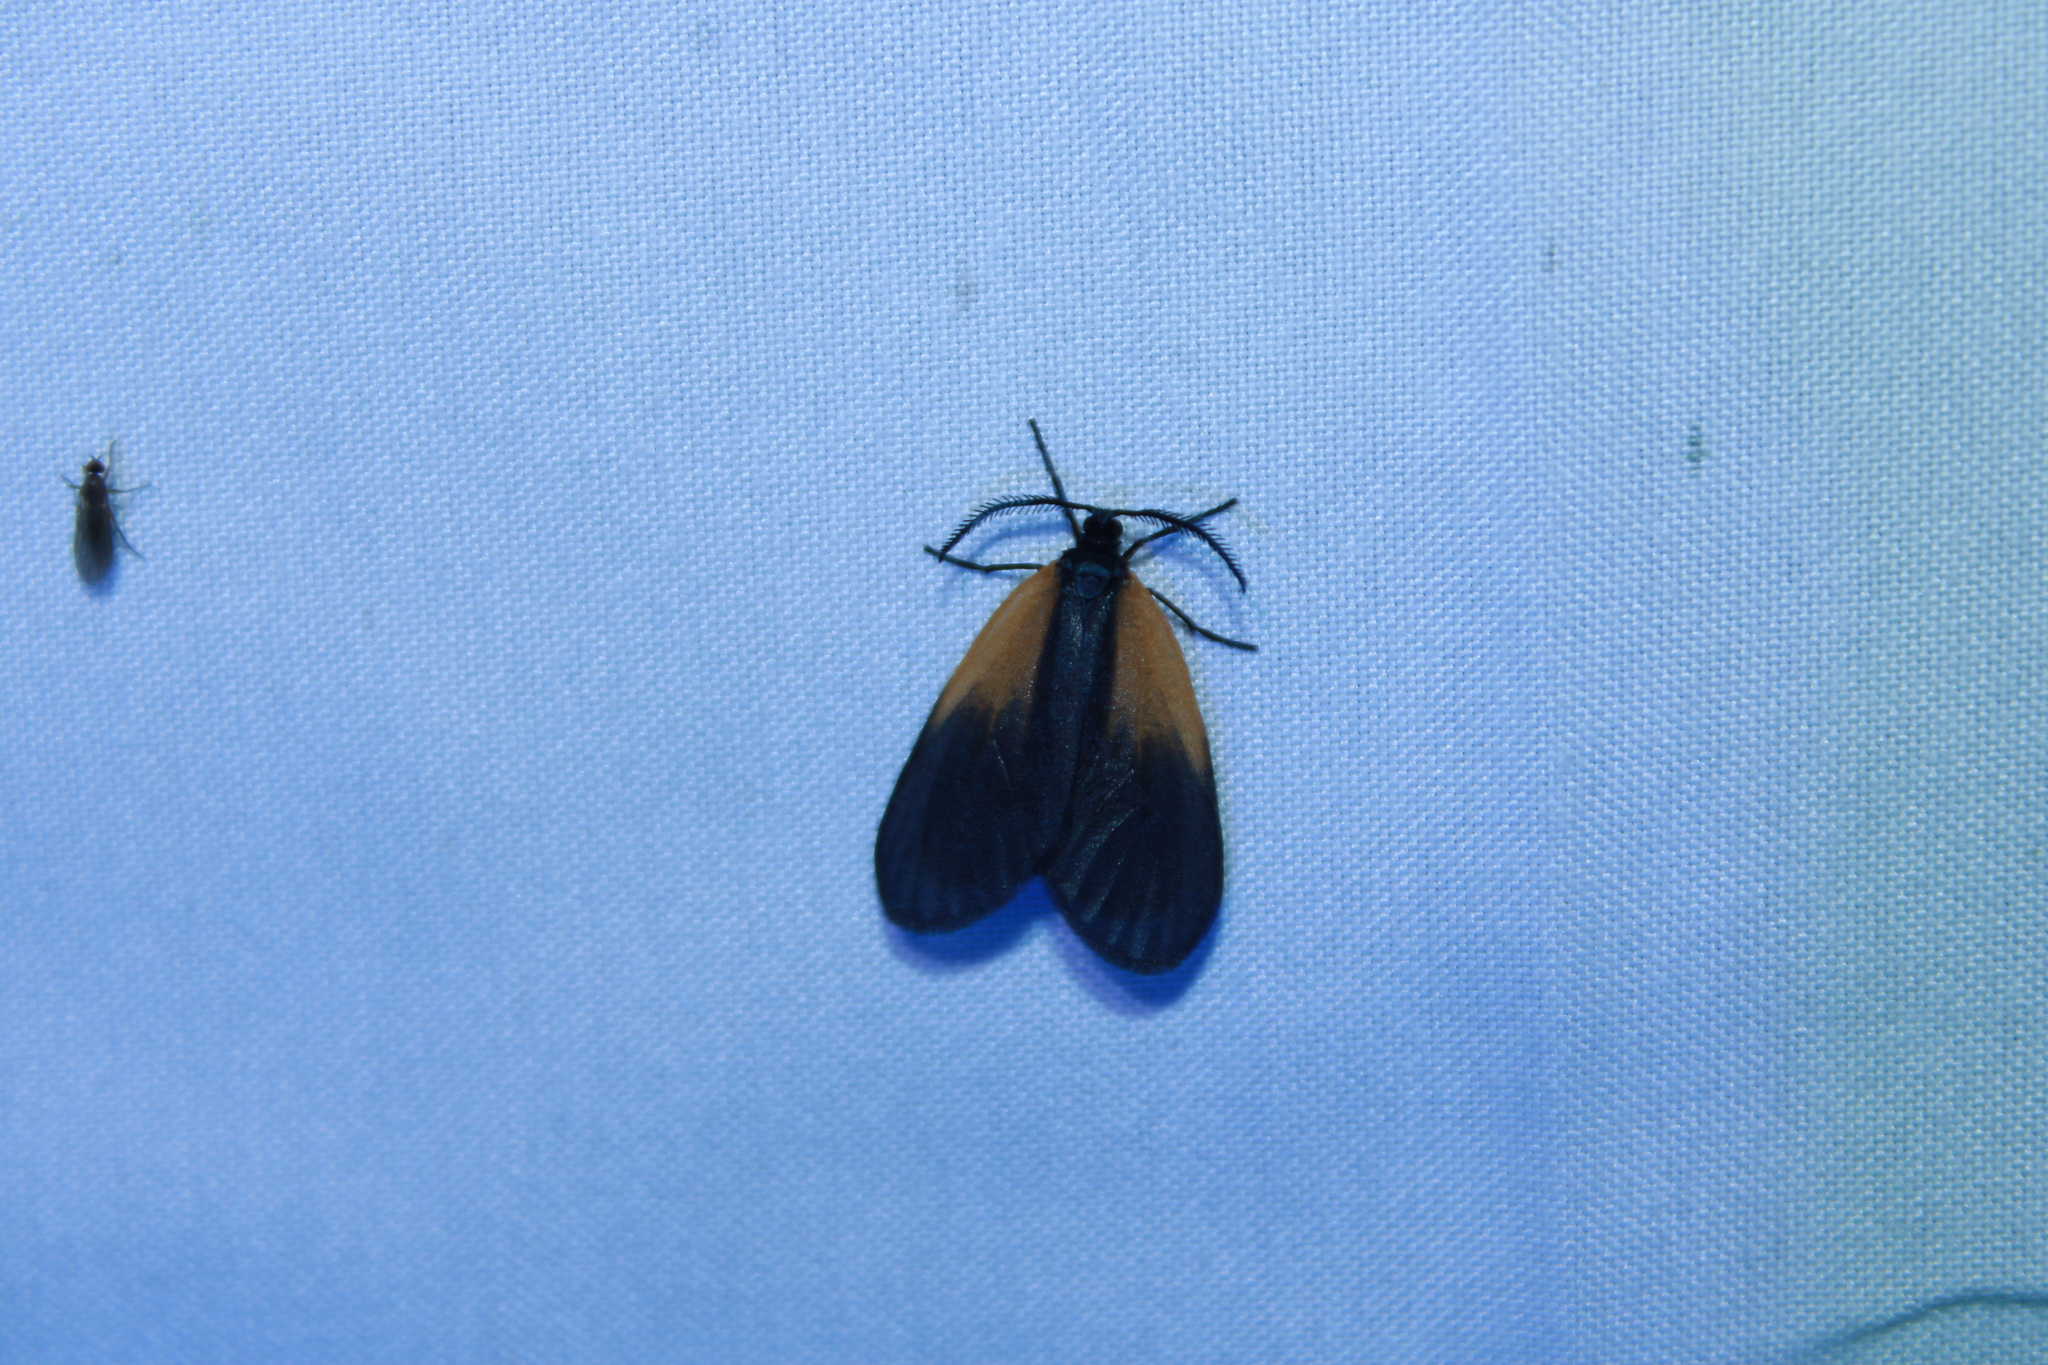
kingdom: Animalia
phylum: Arthropoda
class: Insecta
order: Lepidoptera
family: Zygaenidae
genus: Malthaca
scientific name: Malthaca dimidiata
